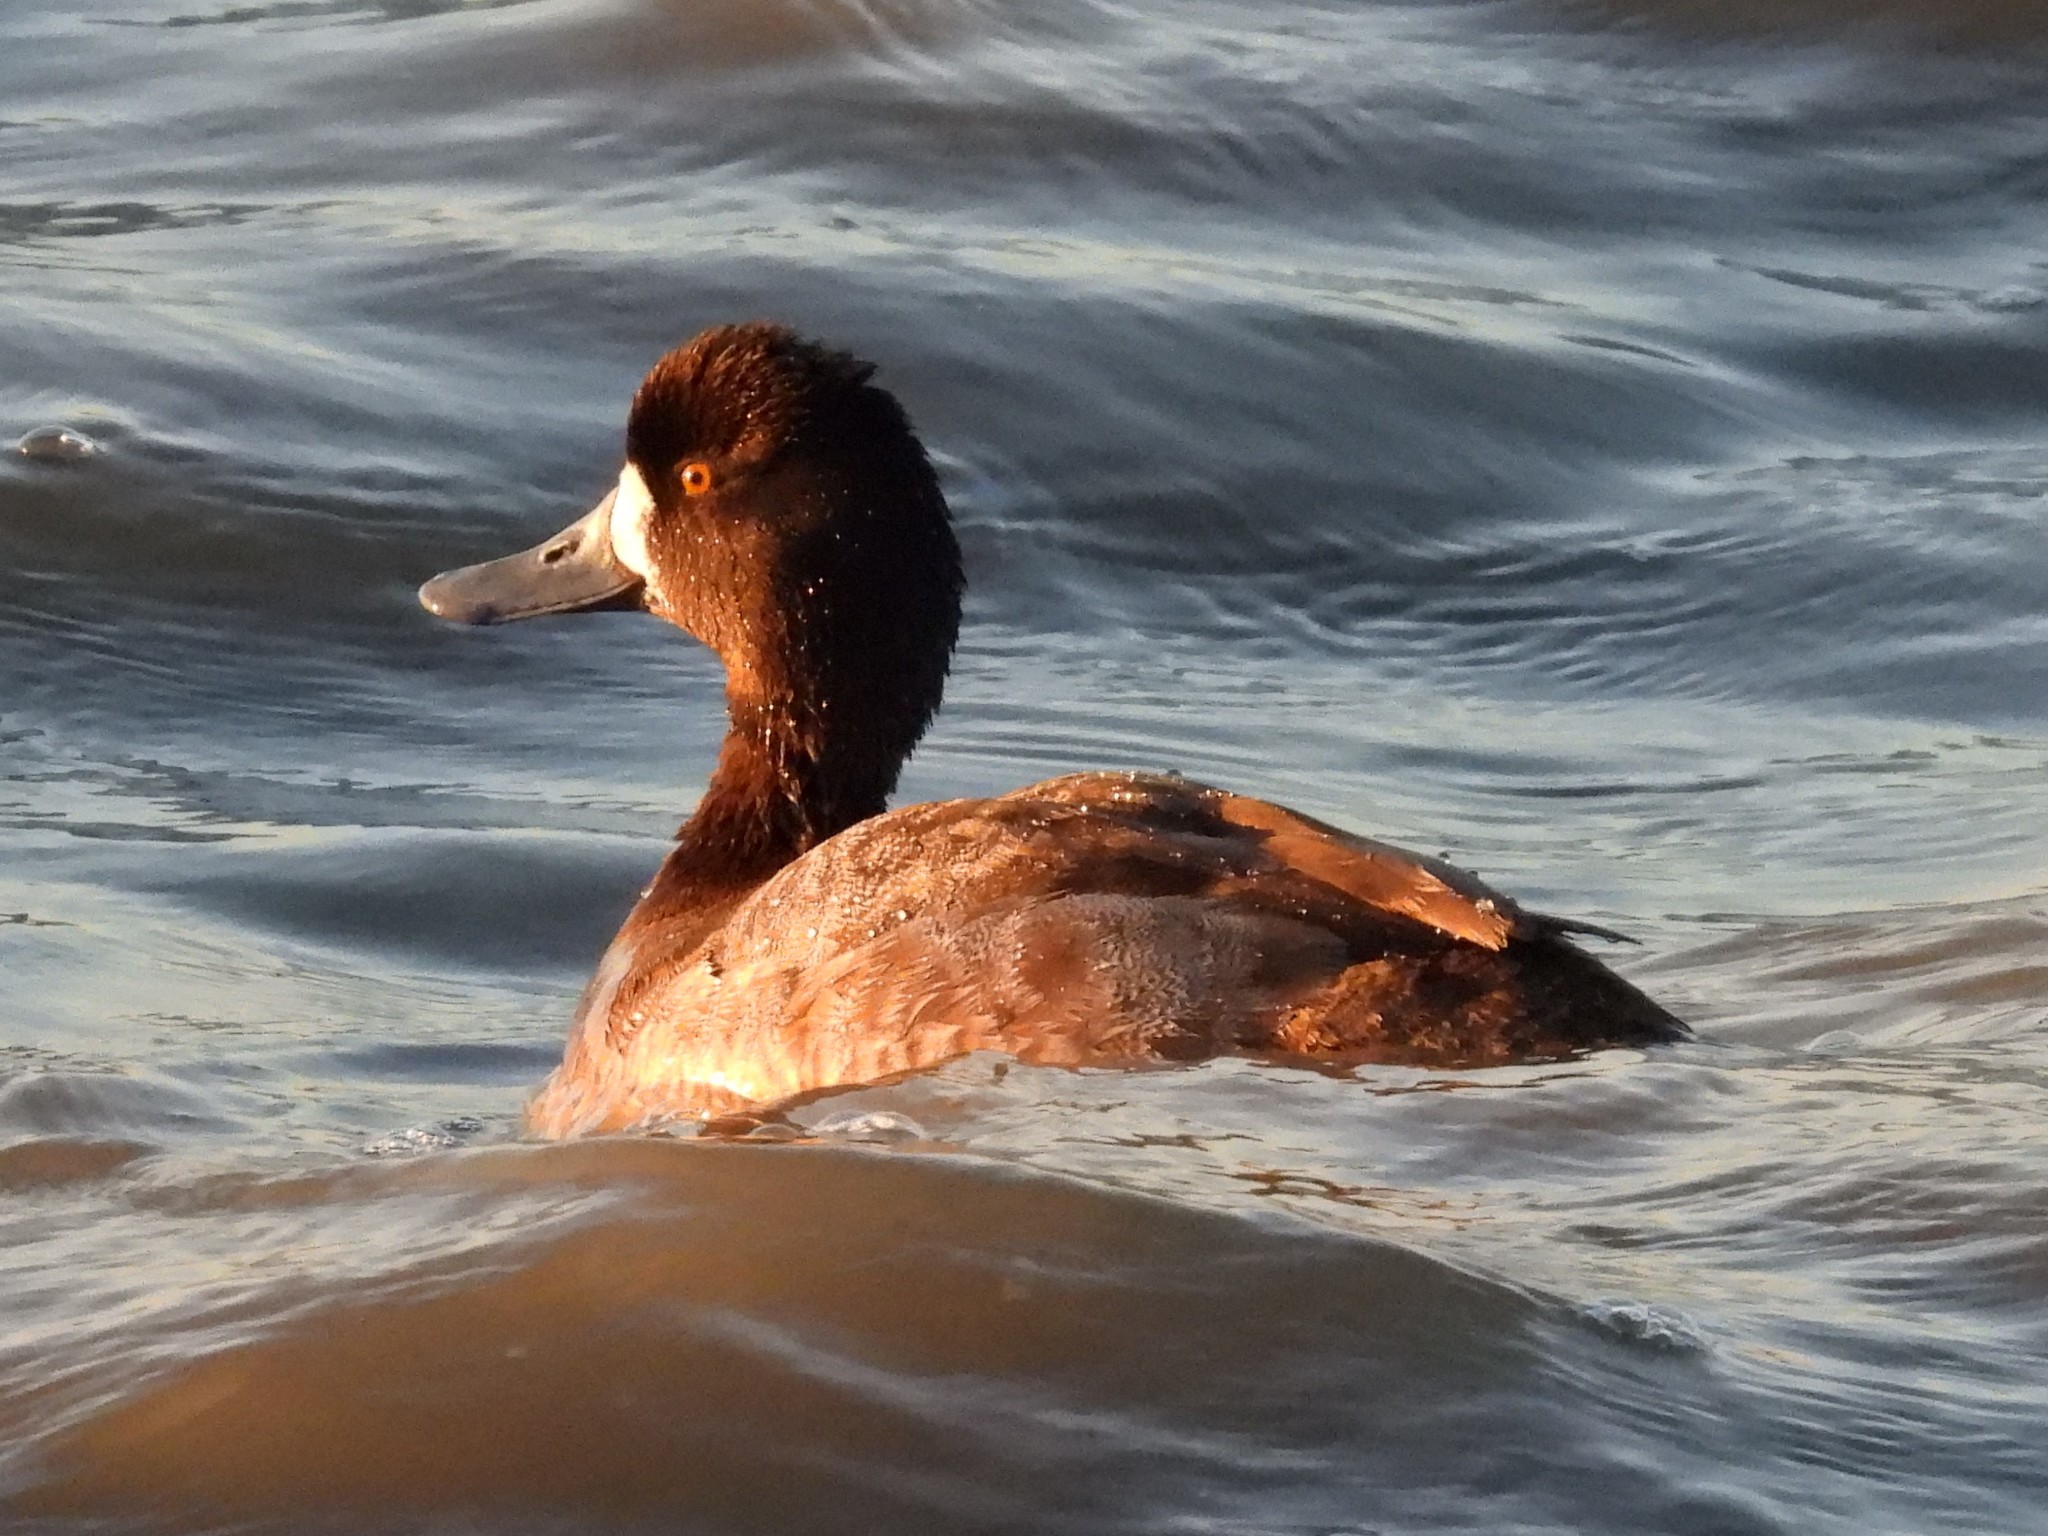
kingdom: Animalia
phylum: Chordata
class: Aves
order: Anseriformes
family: Anatidae
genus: Aythya
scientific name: Aythya affinis
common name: Lesser scaup
